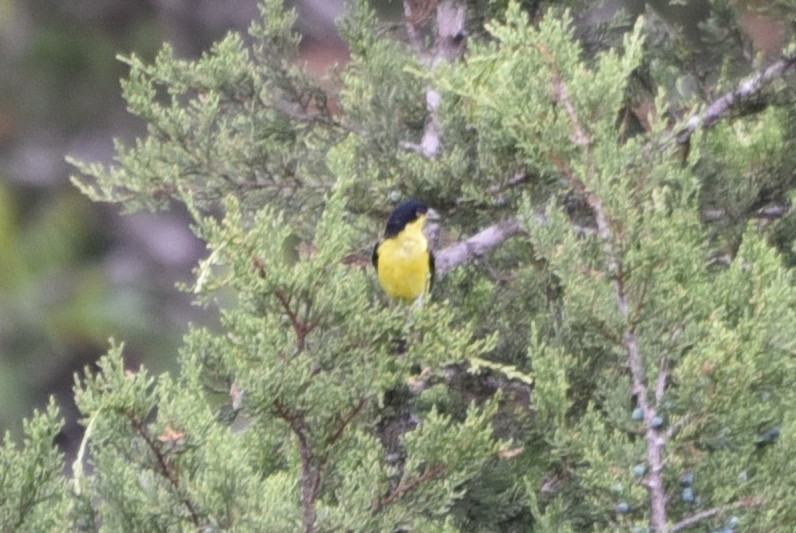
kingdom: Animalia
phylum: Chordata
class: Aves
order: Passeriformes
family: Fringillidae
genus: Spinus
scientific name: Spinus psaltria
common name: Lesser goldfinch
